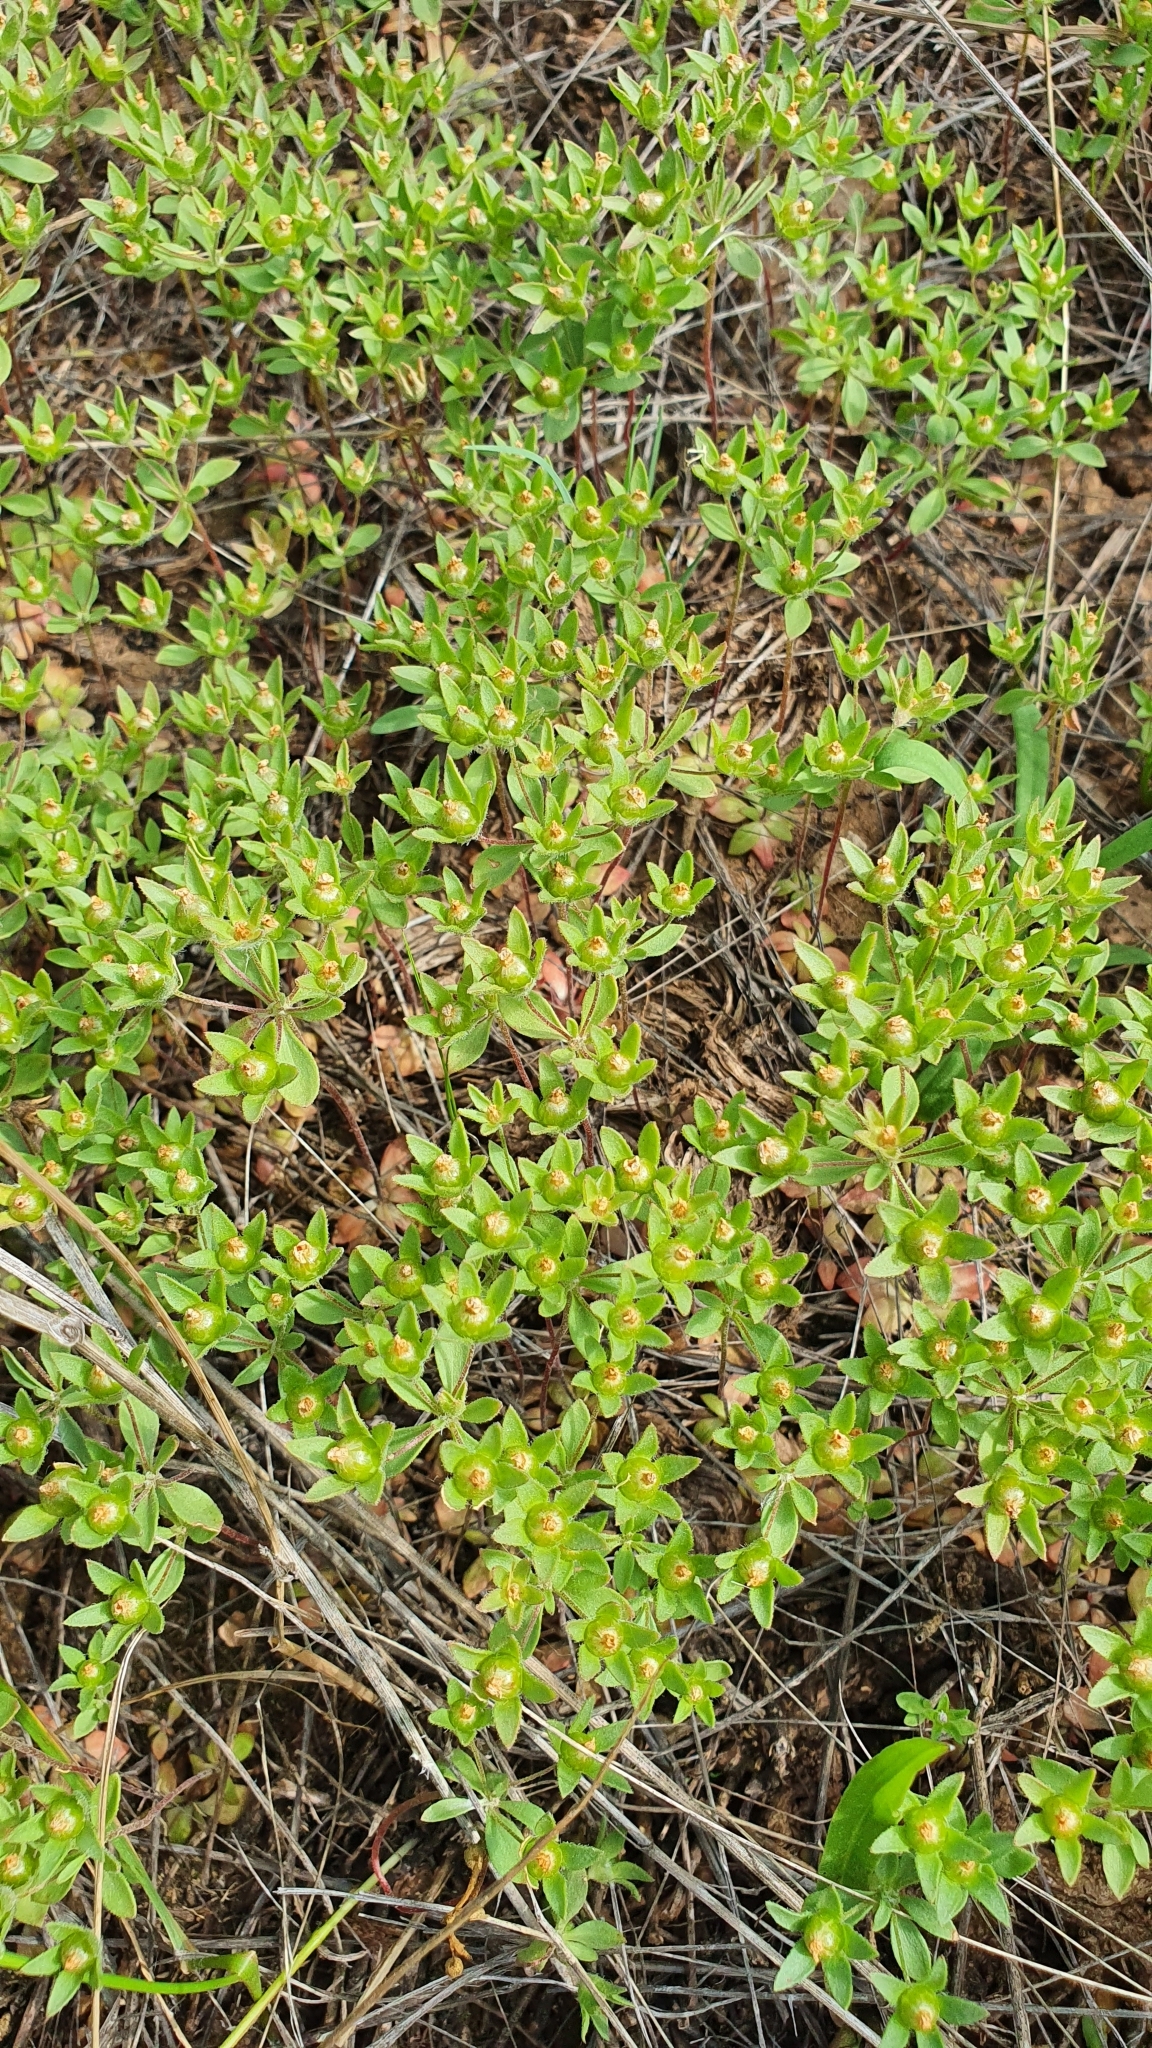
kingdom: Plantae
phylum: Tracheophyta
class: Magnoliopsida
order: Ericales
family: Primulaceae
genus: Androsace
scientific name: Androsace maxima
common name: Annual androsace
